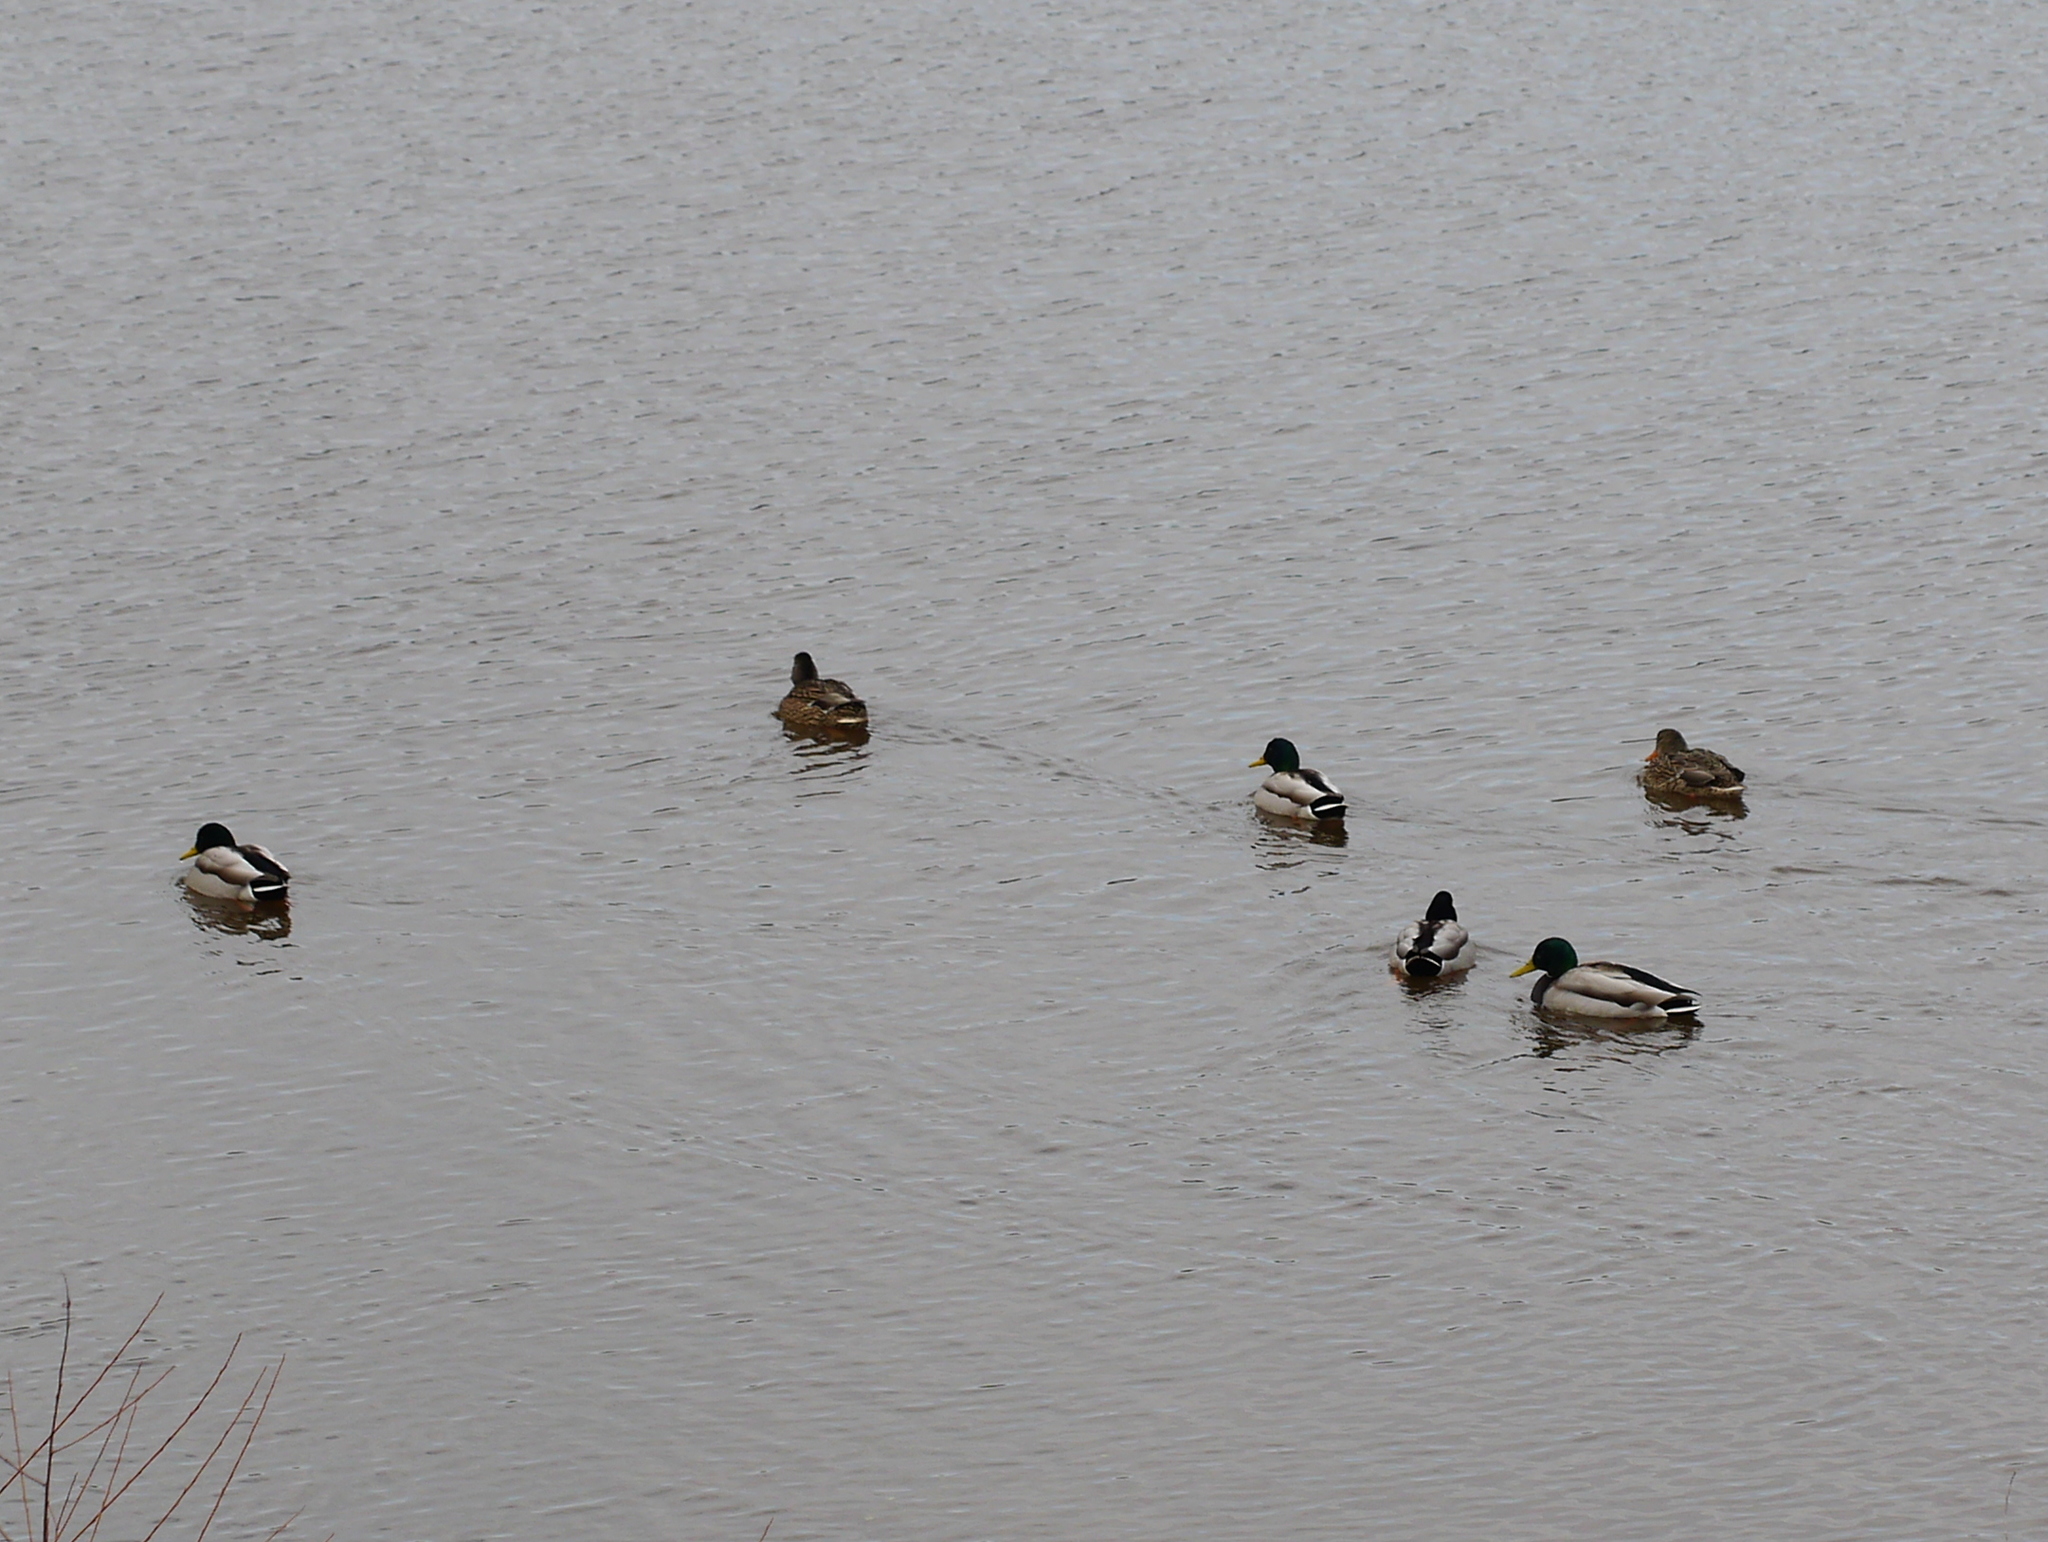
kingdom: Animalia
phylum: Chordata
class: Aves
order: Anseriformes
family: Anatidae
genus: Anas
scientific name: Anas platyrhynchos
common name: Mallard
